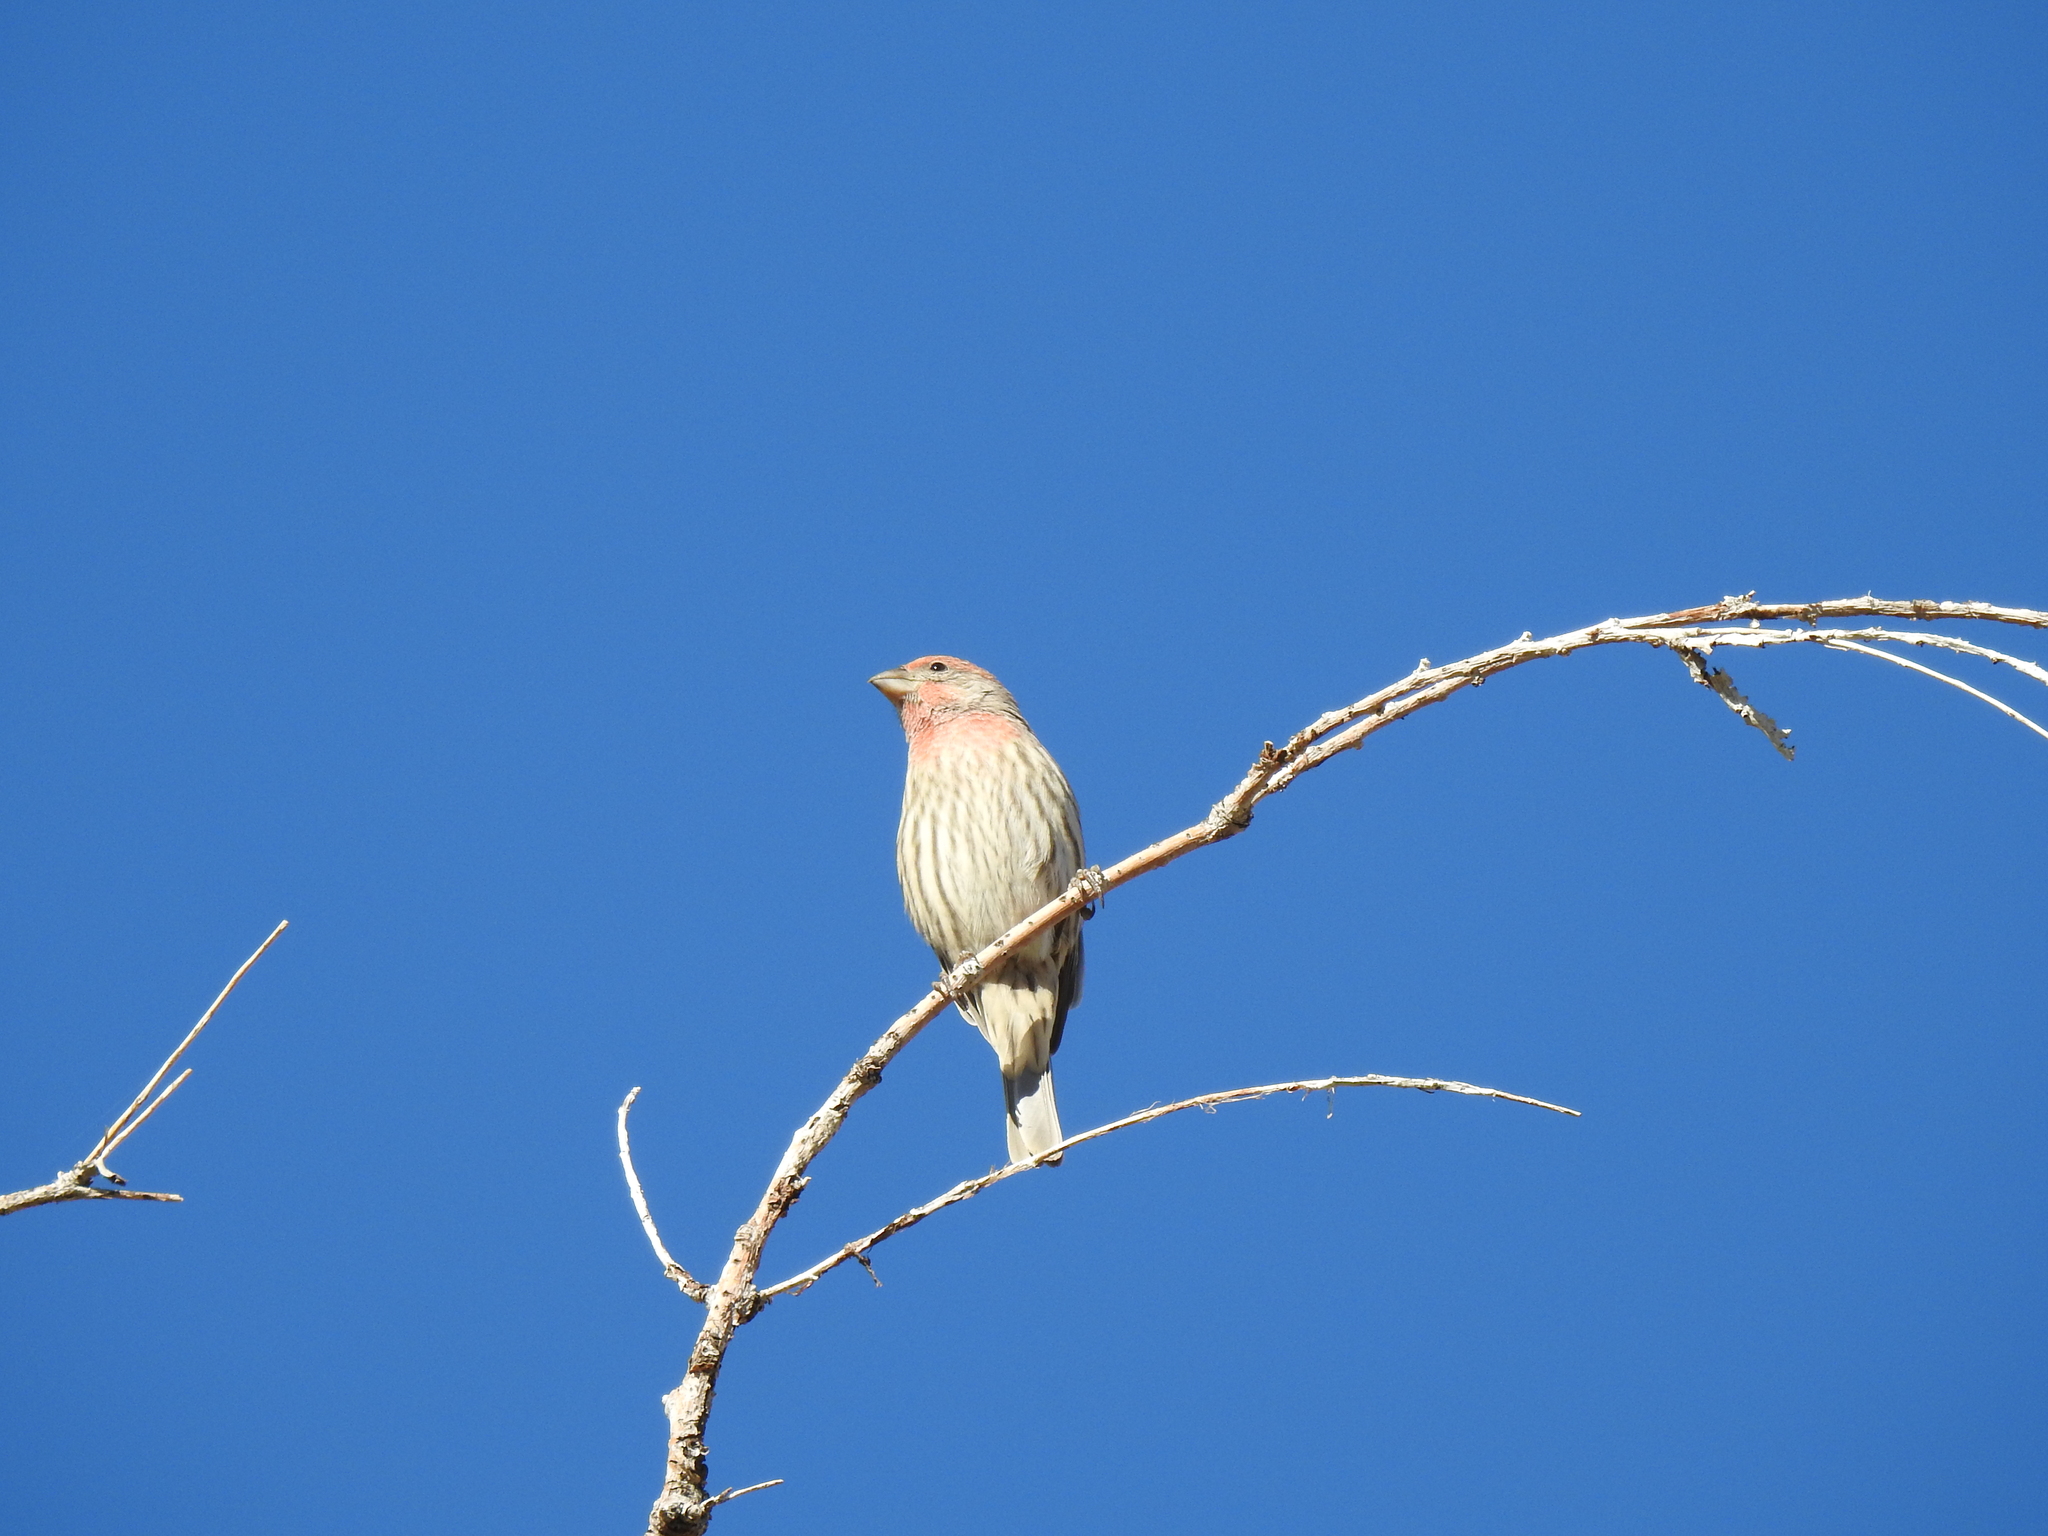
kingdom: Animalia
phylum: Chordata
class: Aves
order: Passeriformes
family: Fringillidae
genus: Haemorhous
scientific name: Haemorhous mexicanus
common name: House finch
